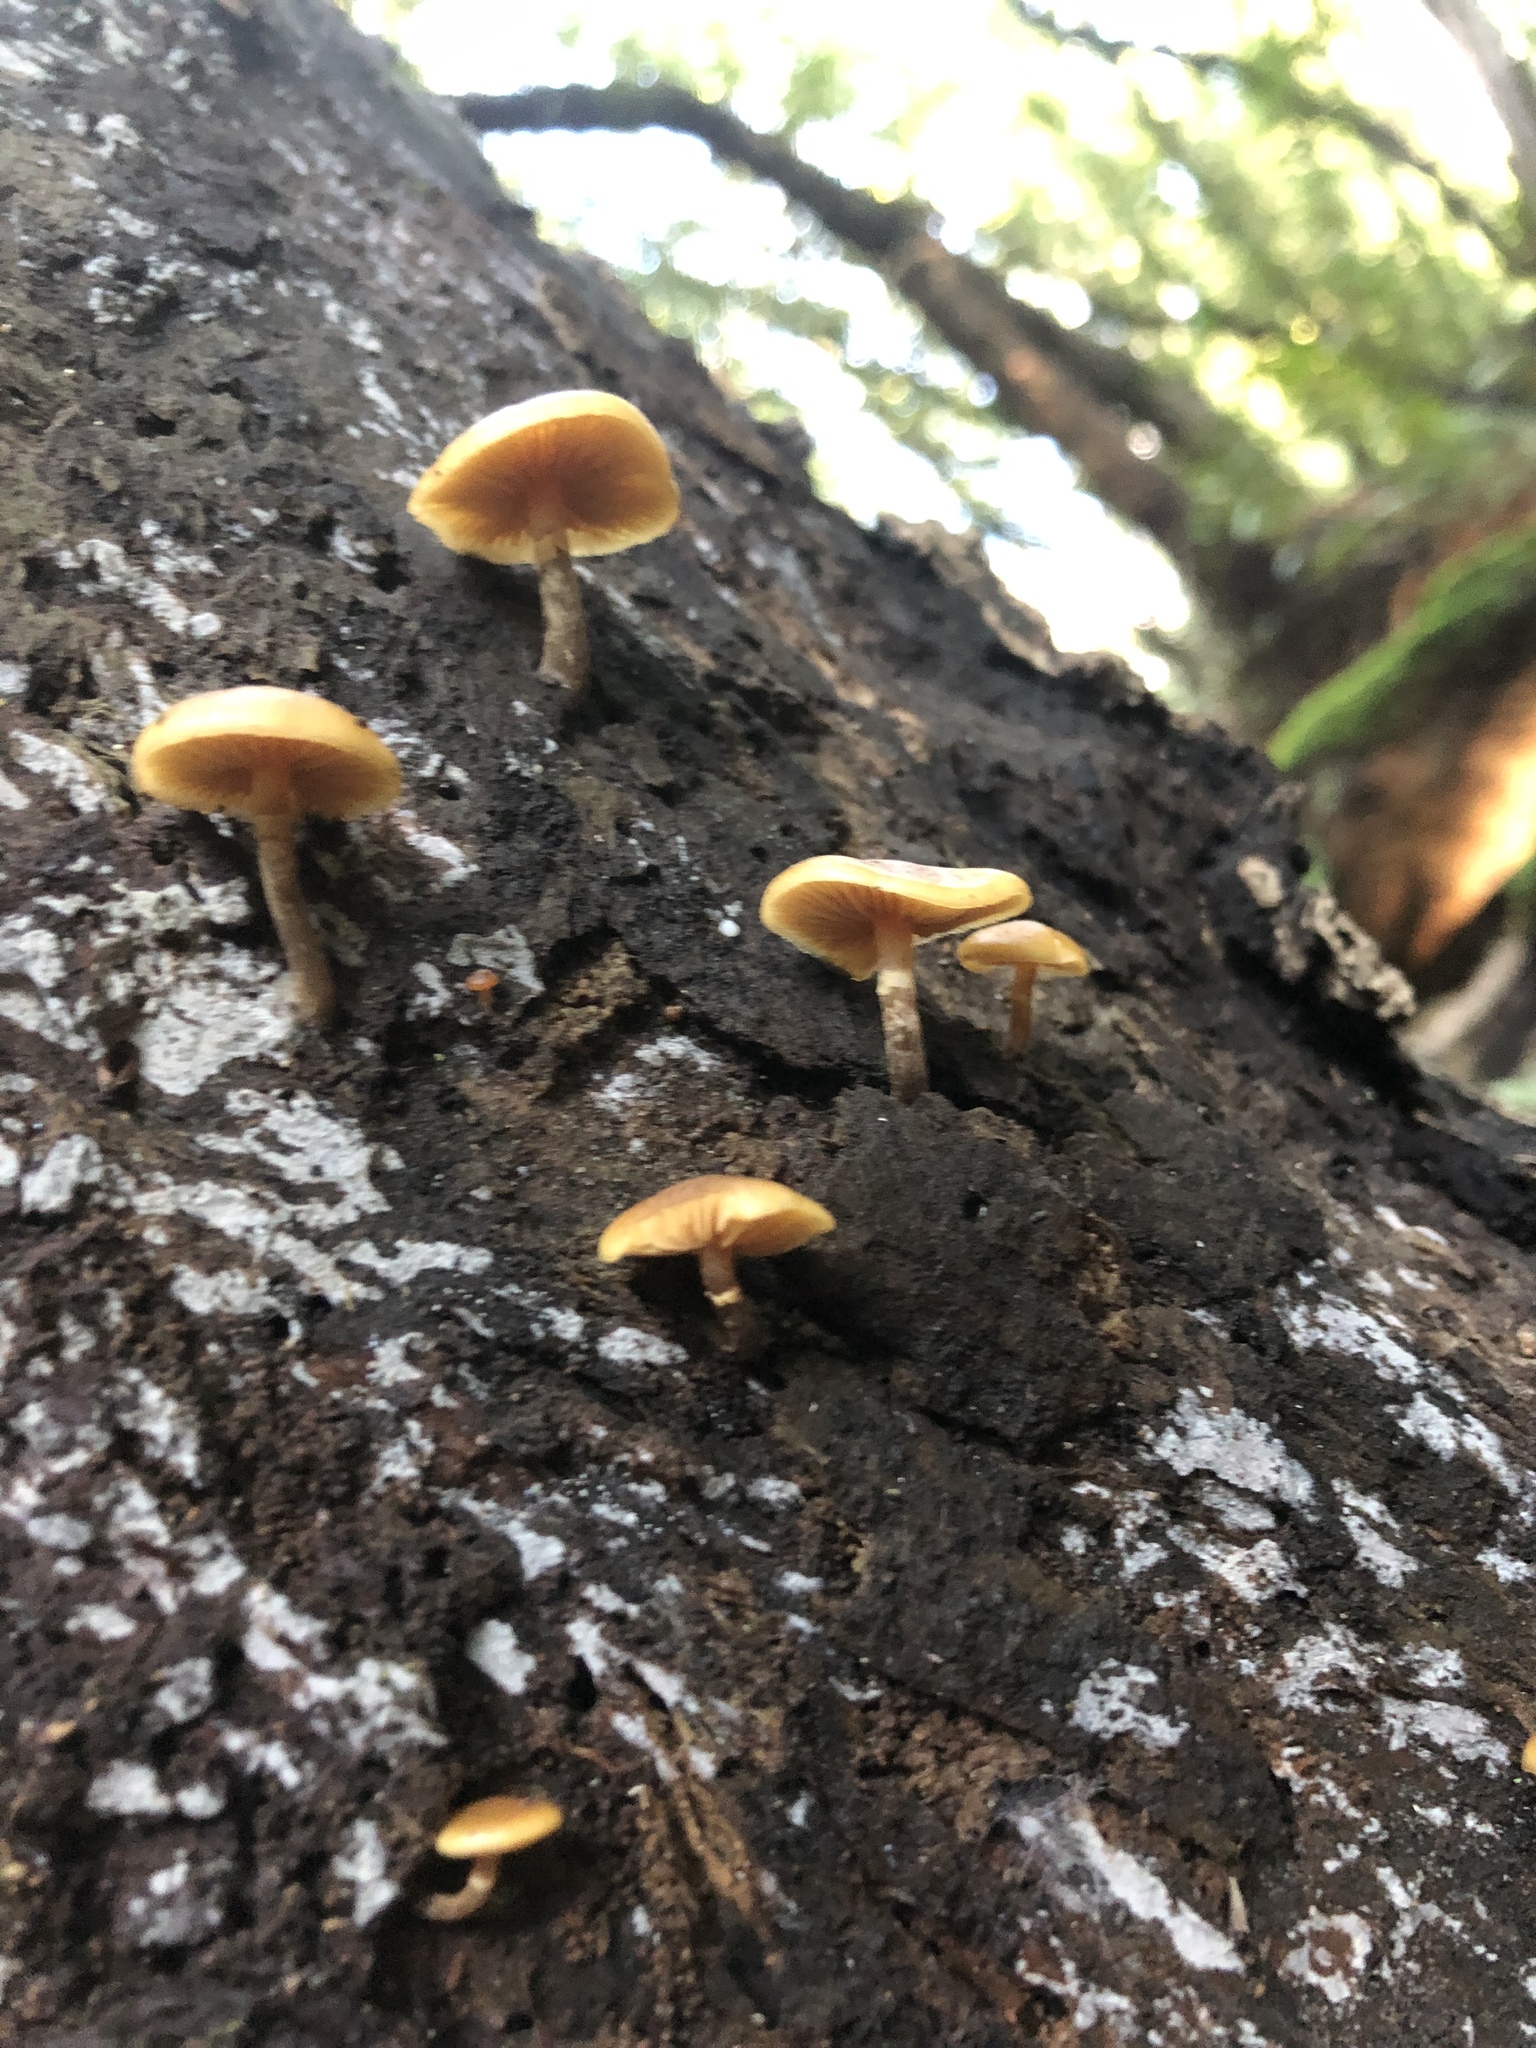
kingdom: Fungi
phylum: Basidiomycota
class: Agaricomycetes
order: Agaricales
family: Hymenogastraceae
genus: Galerina
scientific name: Galerina marginata
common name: Funeral bell
